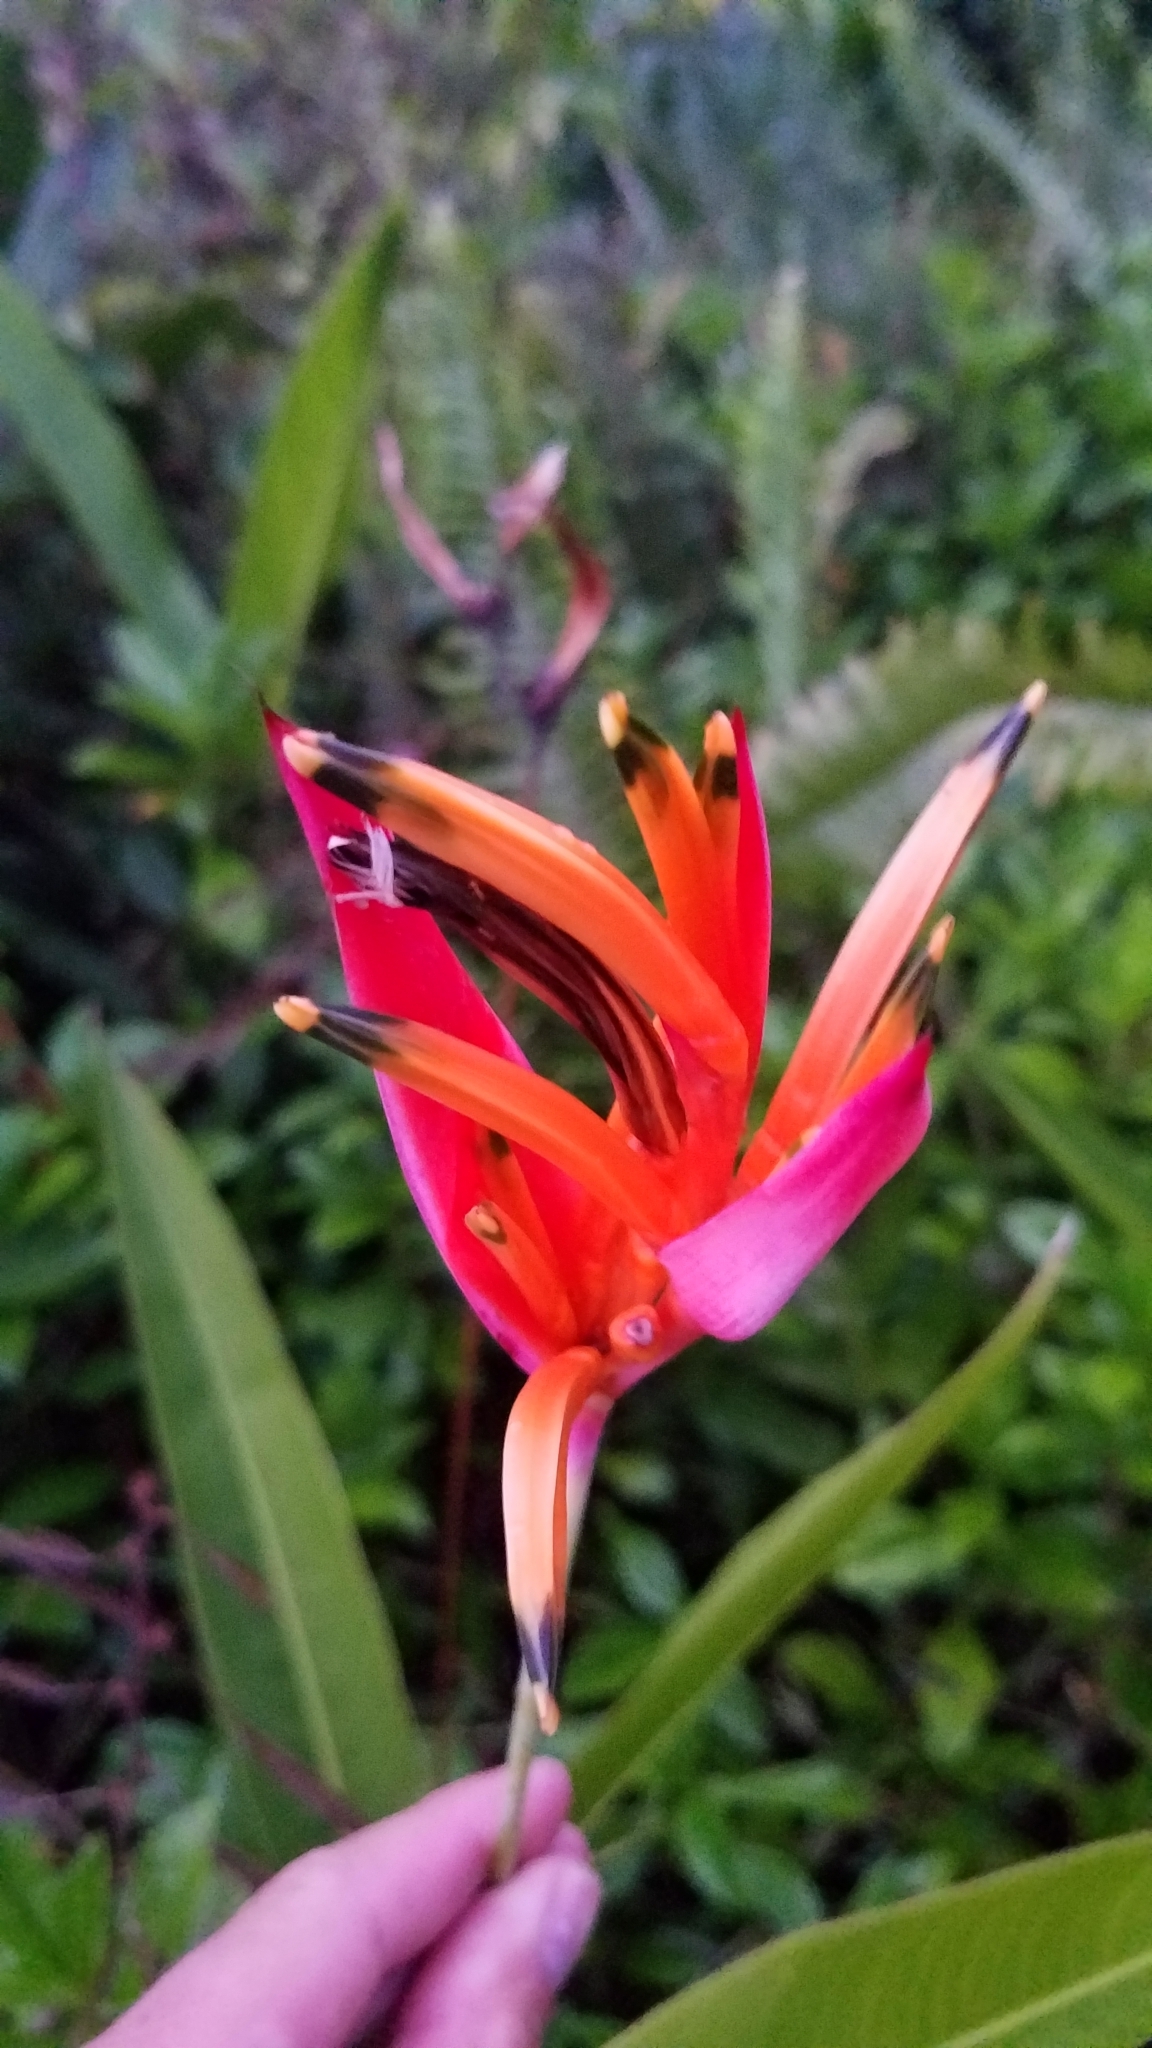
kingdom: Plantae
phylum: Tracheophyta
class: Liliopsida
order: Zingiberales
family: Heliconiaceae
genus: Heliconia
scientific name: Heliconia psittacorum
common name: Parrot's-flower
